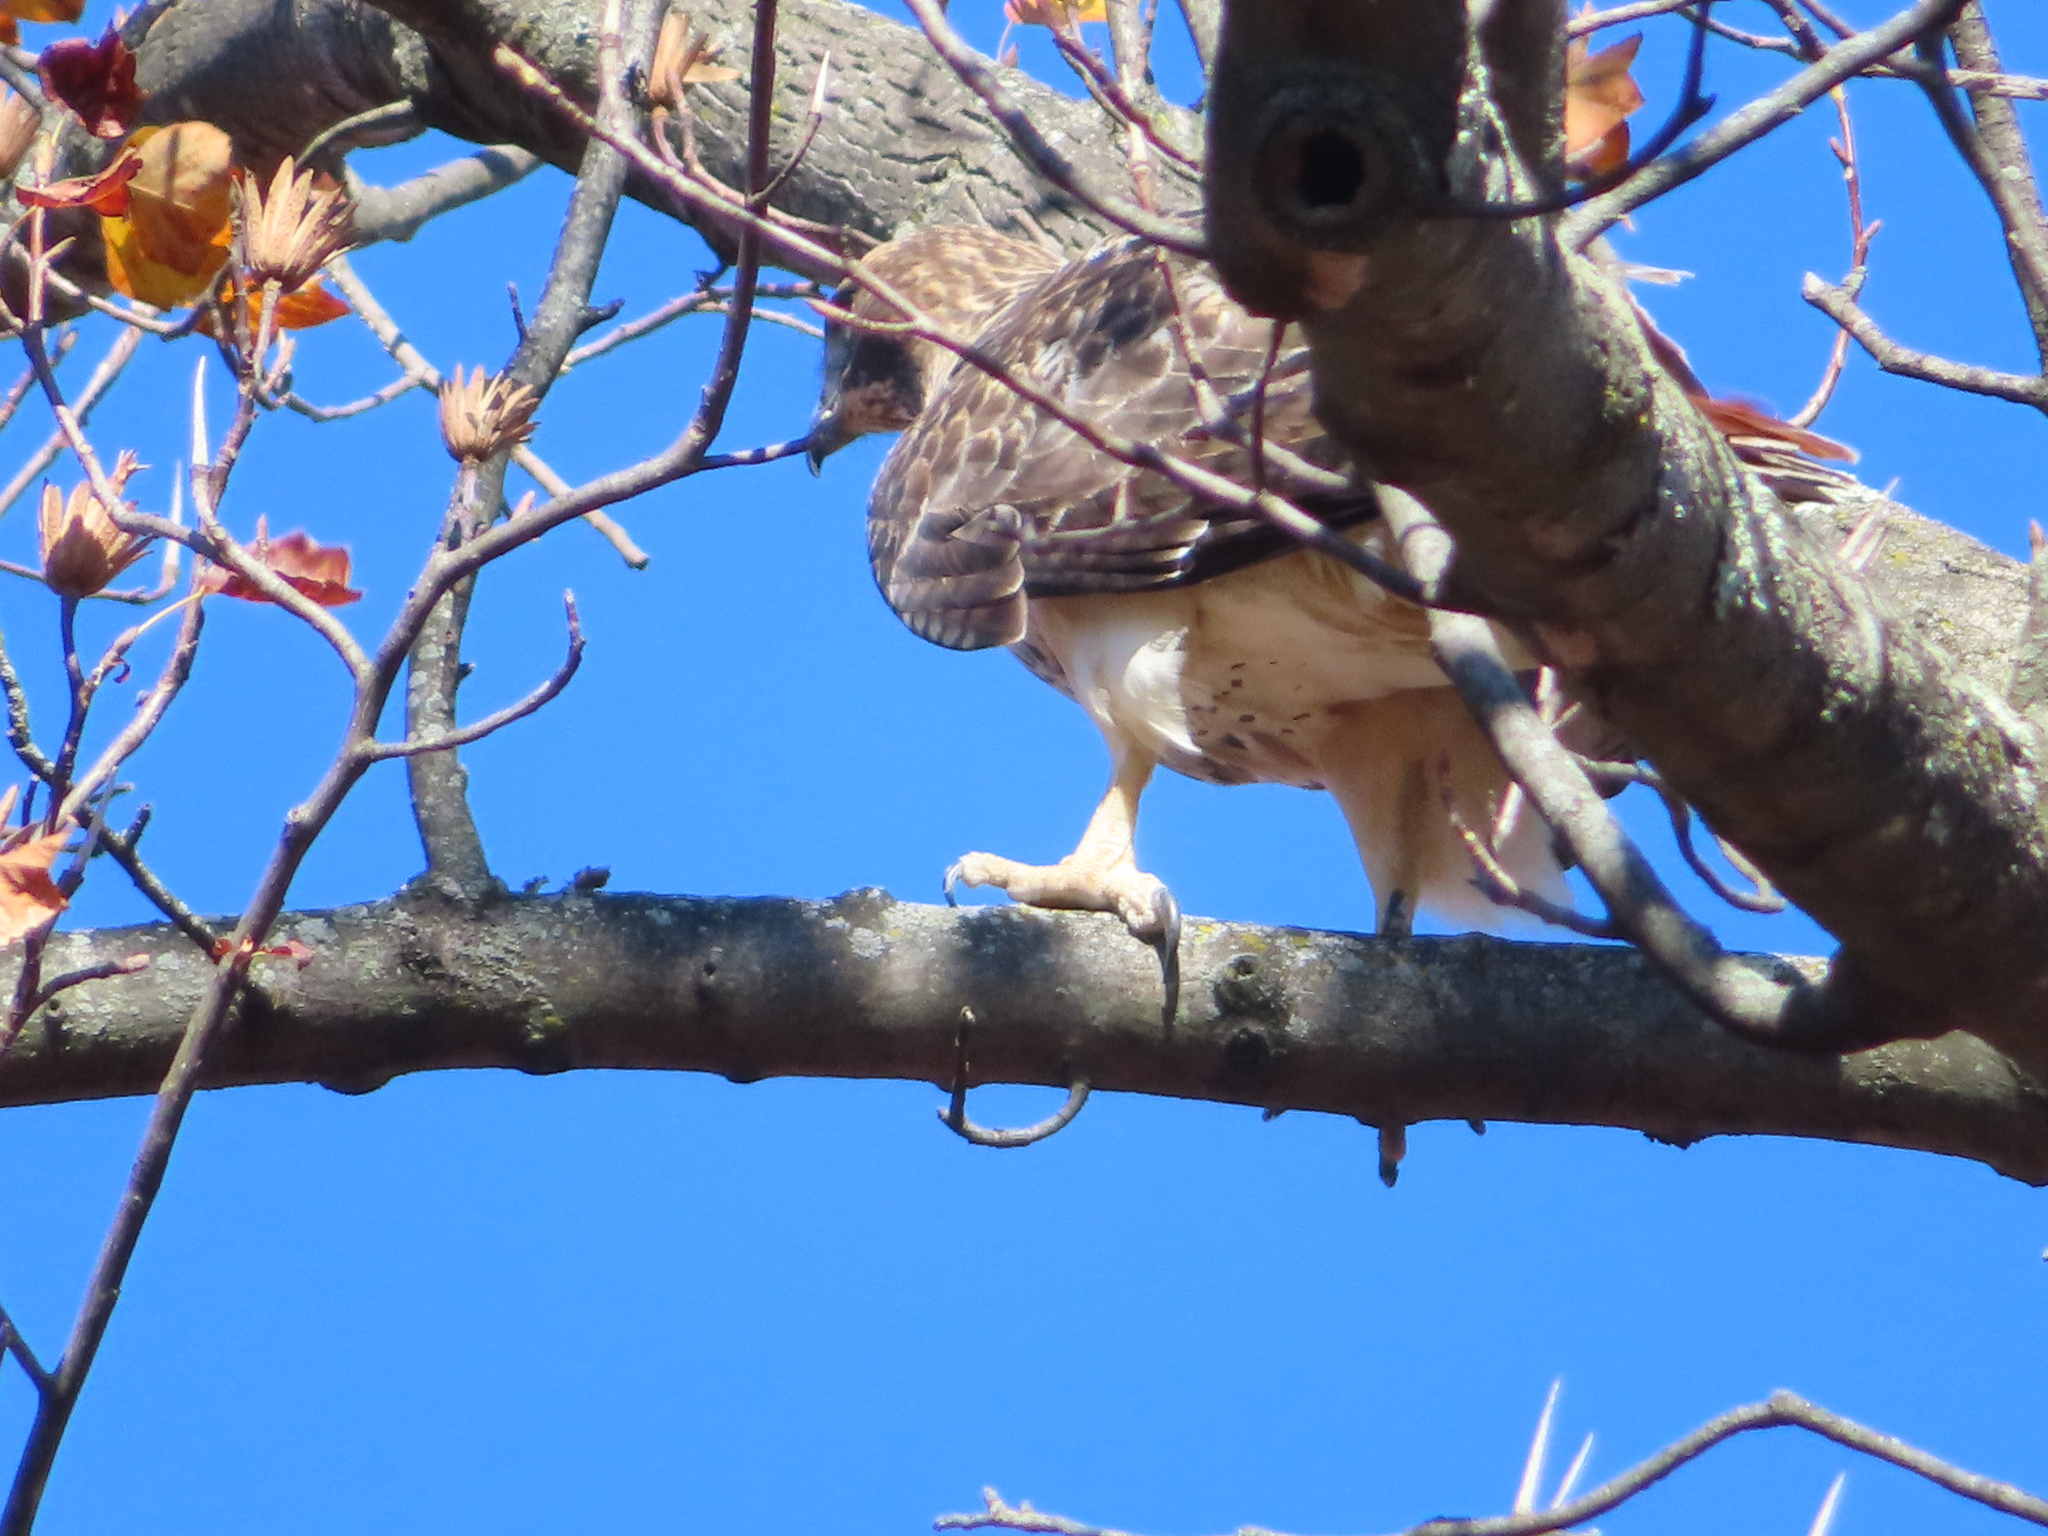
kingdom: Animalia
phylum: Chordata
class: Aves
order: Accipitriformes
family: Accipitridae
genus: Buteo
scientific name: Buteo jamaicensis
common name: Red-tailed hawk
